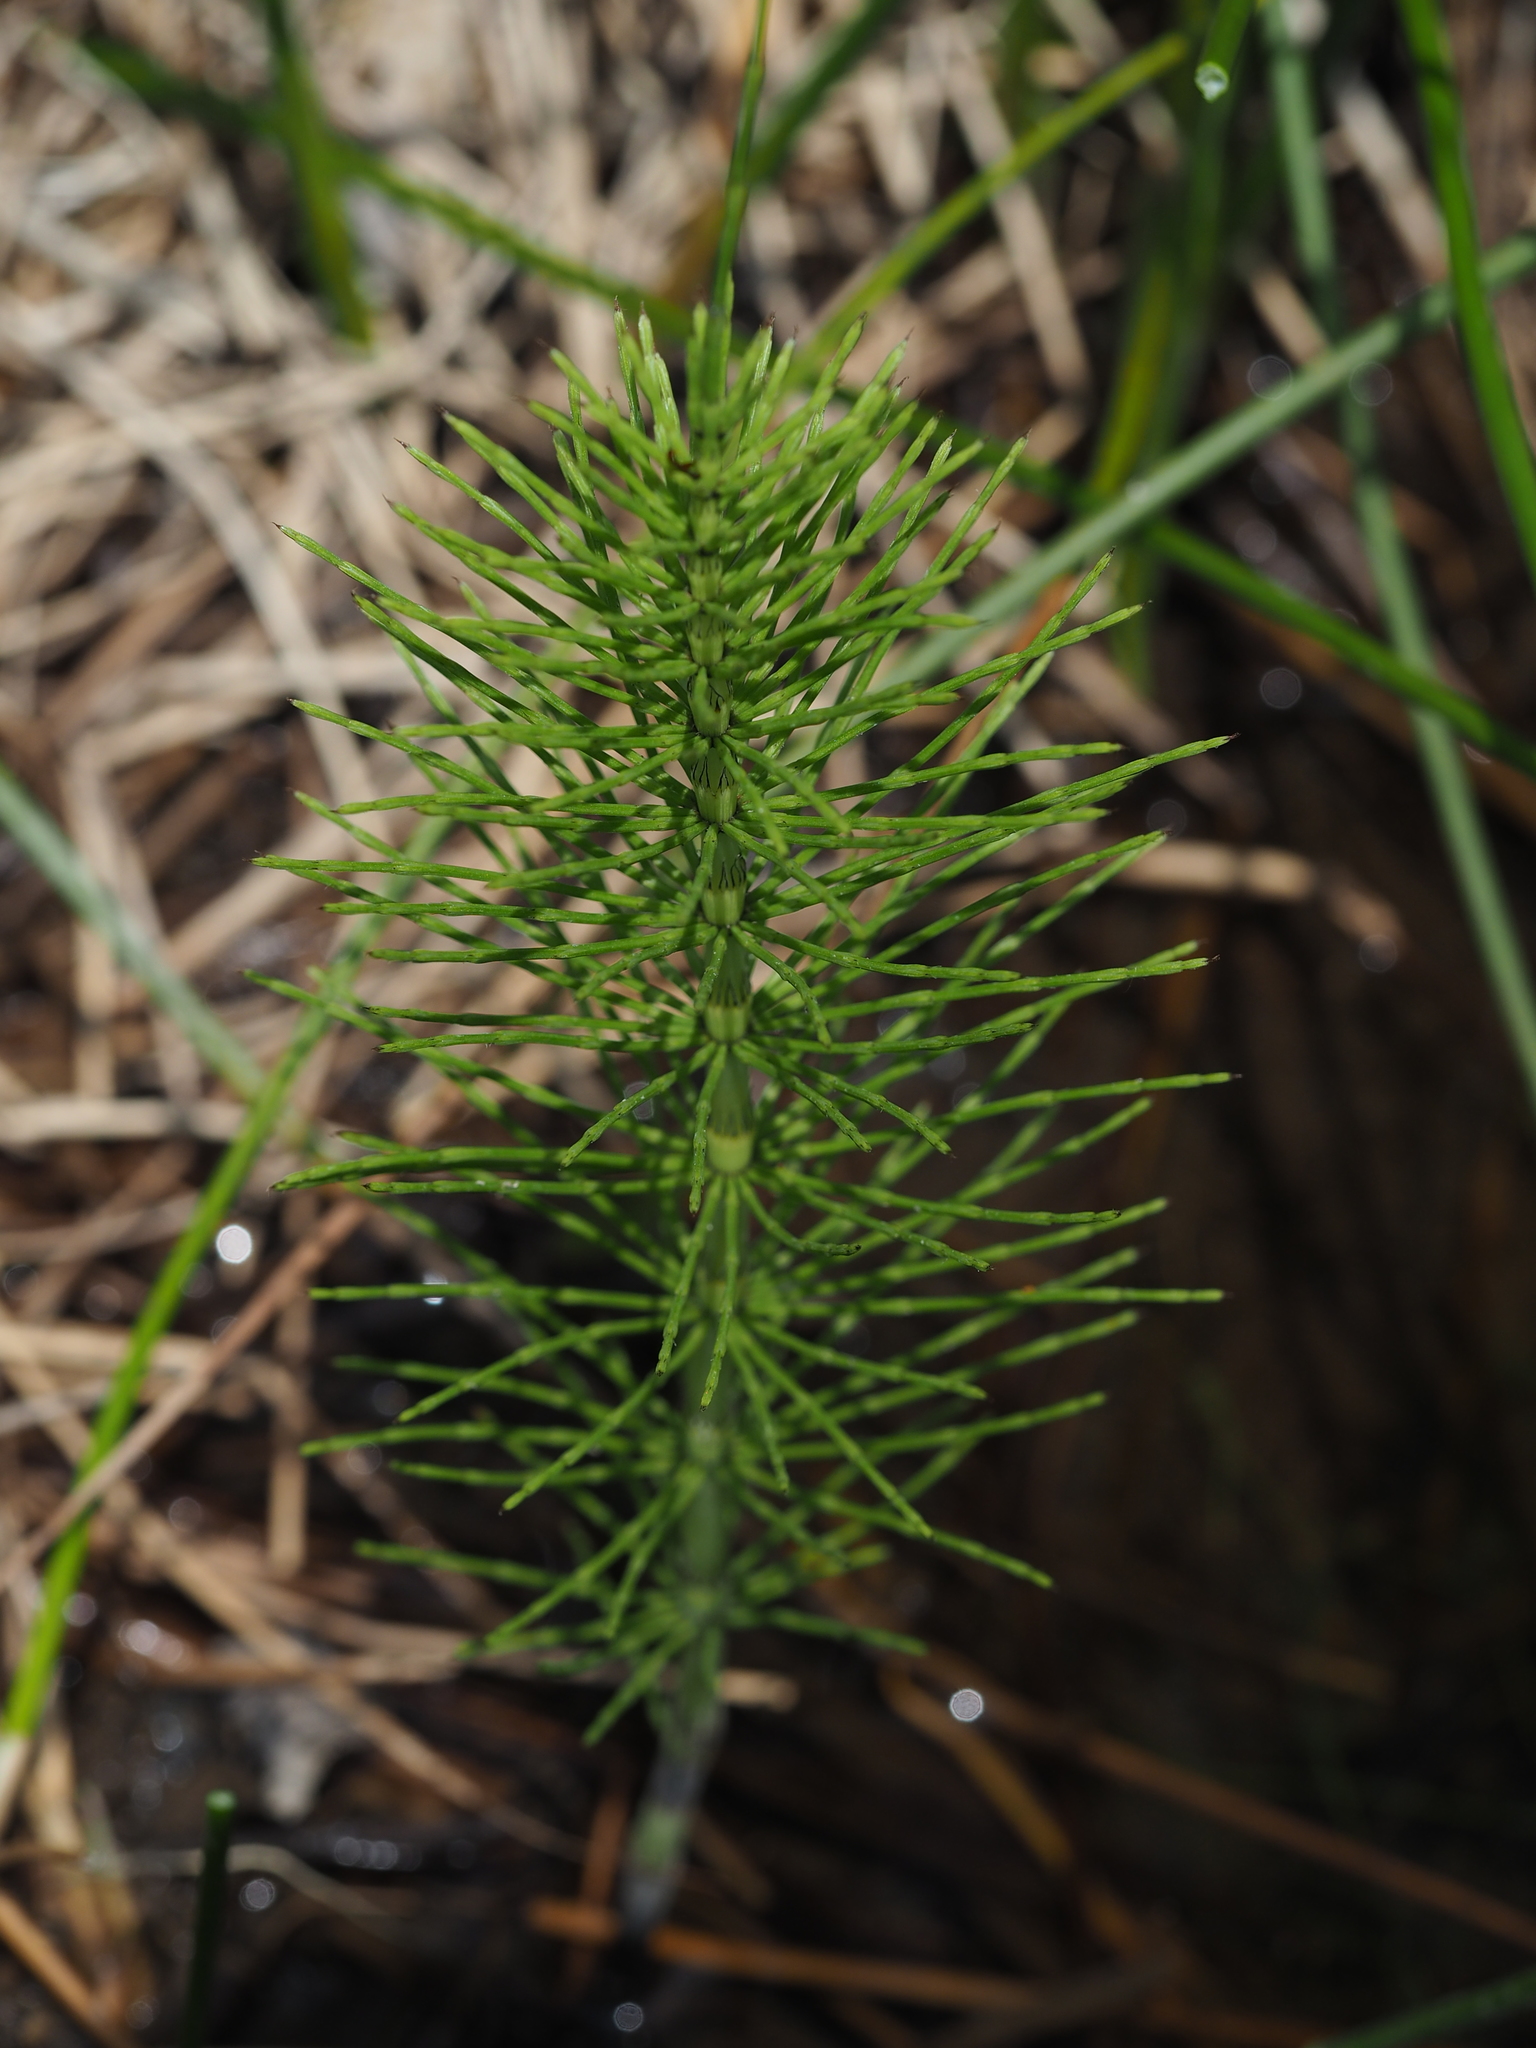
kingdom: Plantae
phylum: Tracheophyta
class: Polypodiopsida
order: Equisetales
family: Equisetaceae
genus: Equisetum
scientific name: Equisetum fluviatile
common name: Water horsetail
